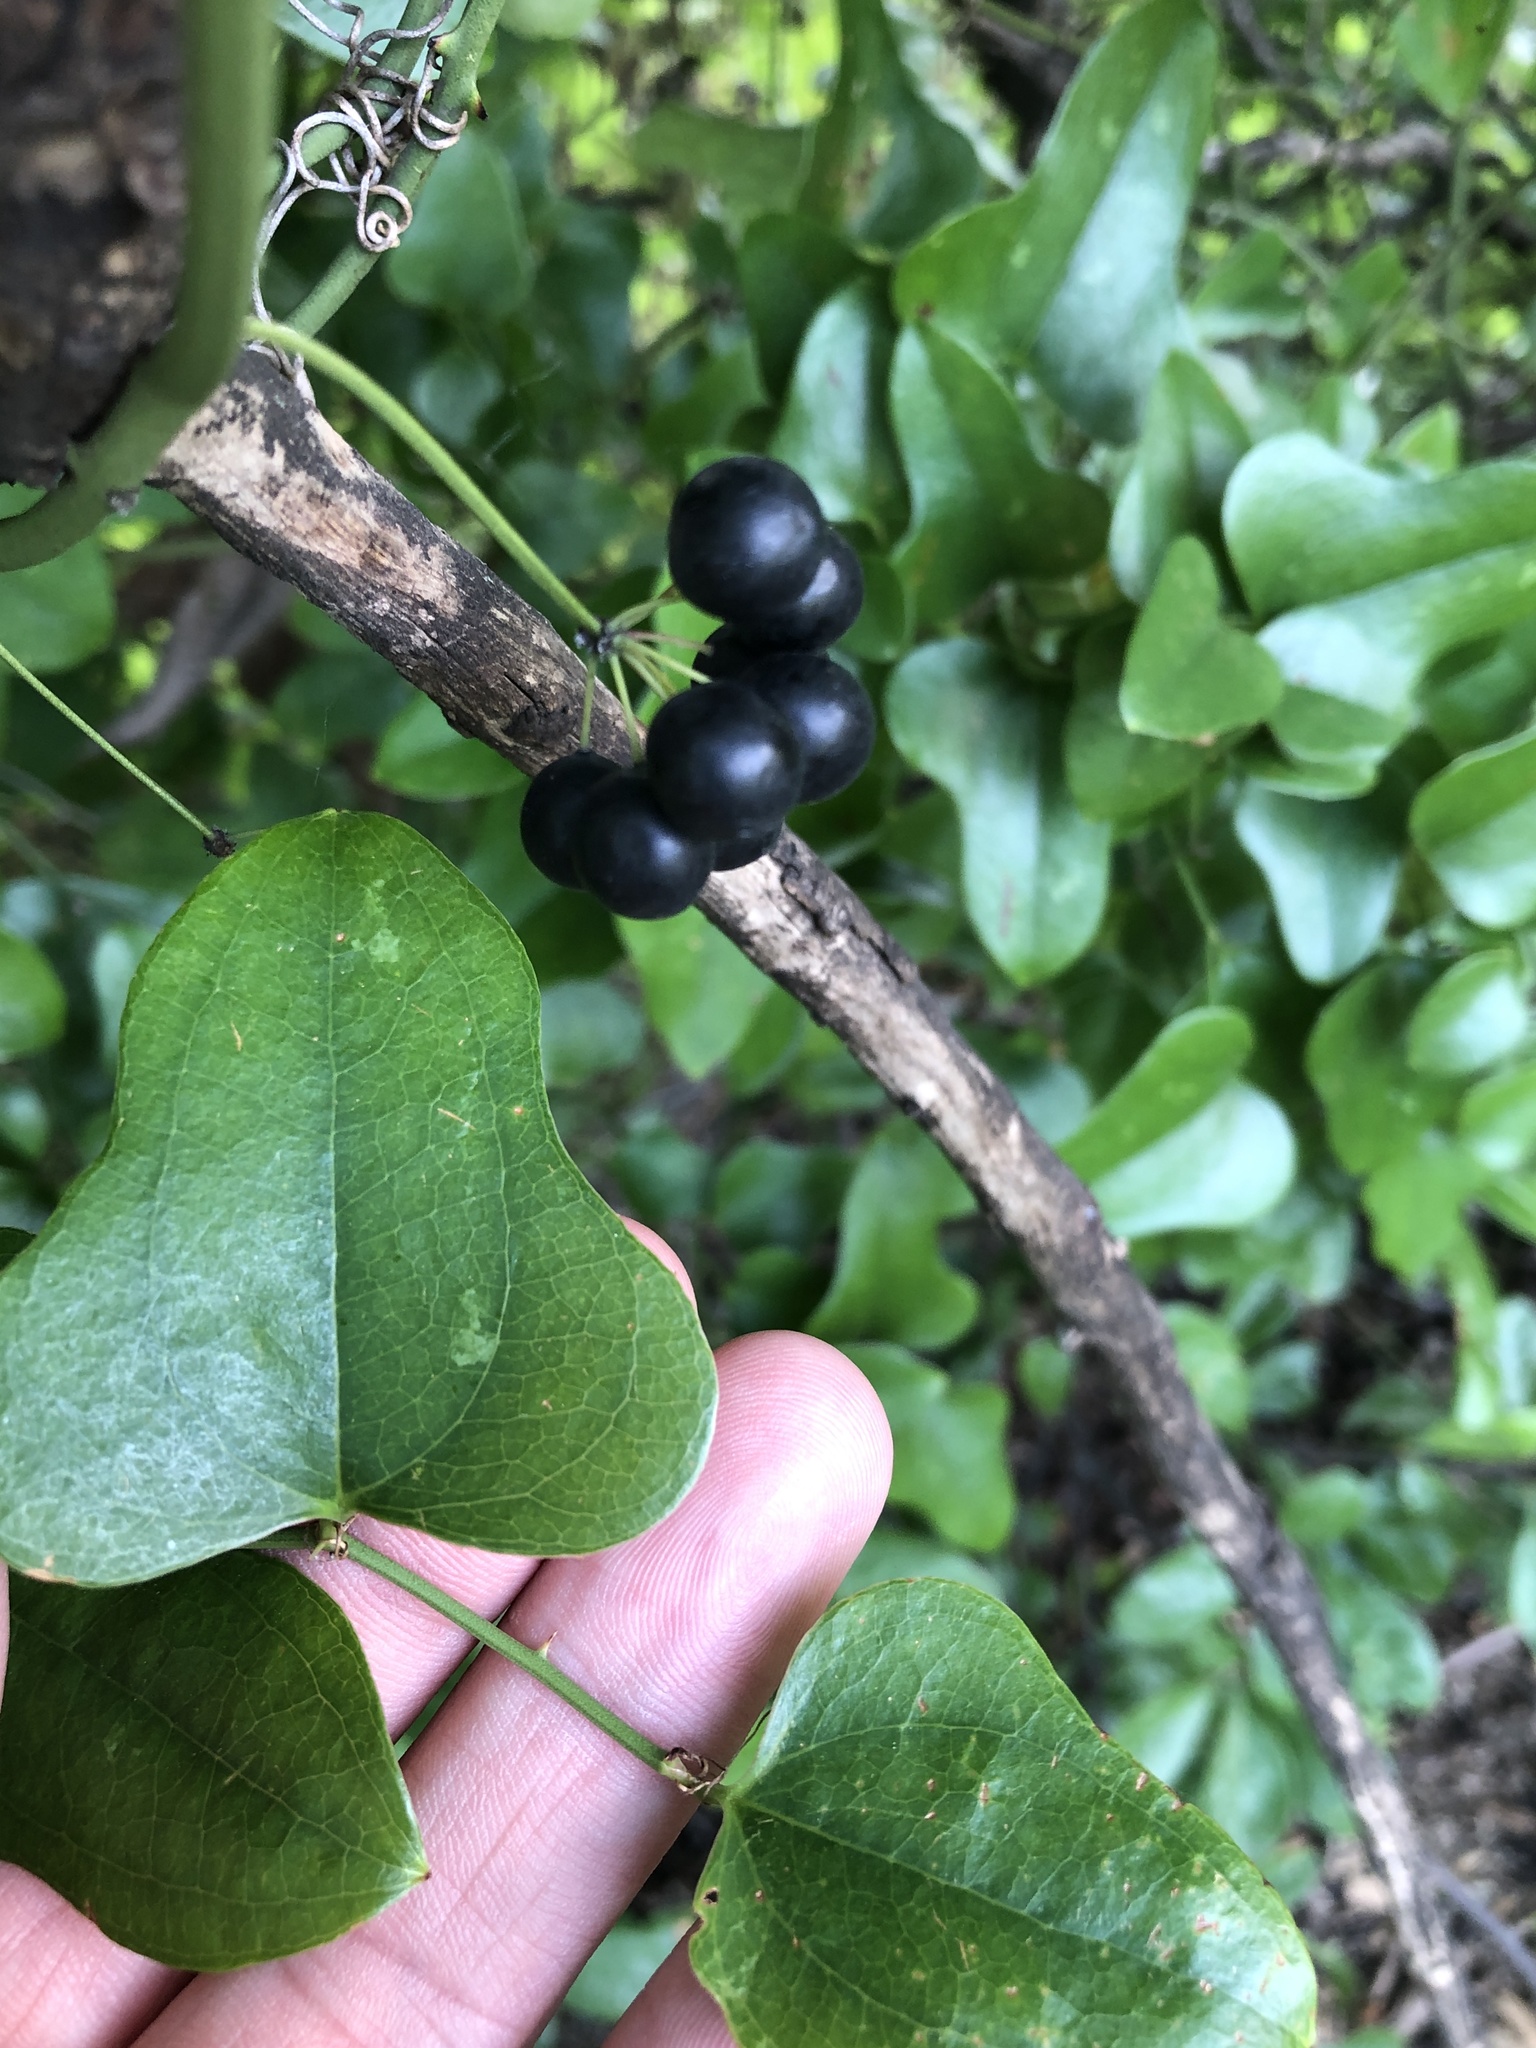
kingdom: Plantae
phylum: Tracheophyta
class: Liliopsida
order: Liliales
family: Smilacaceae
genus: Smilax
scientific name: Smilax bona-nox
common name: Catbrier
